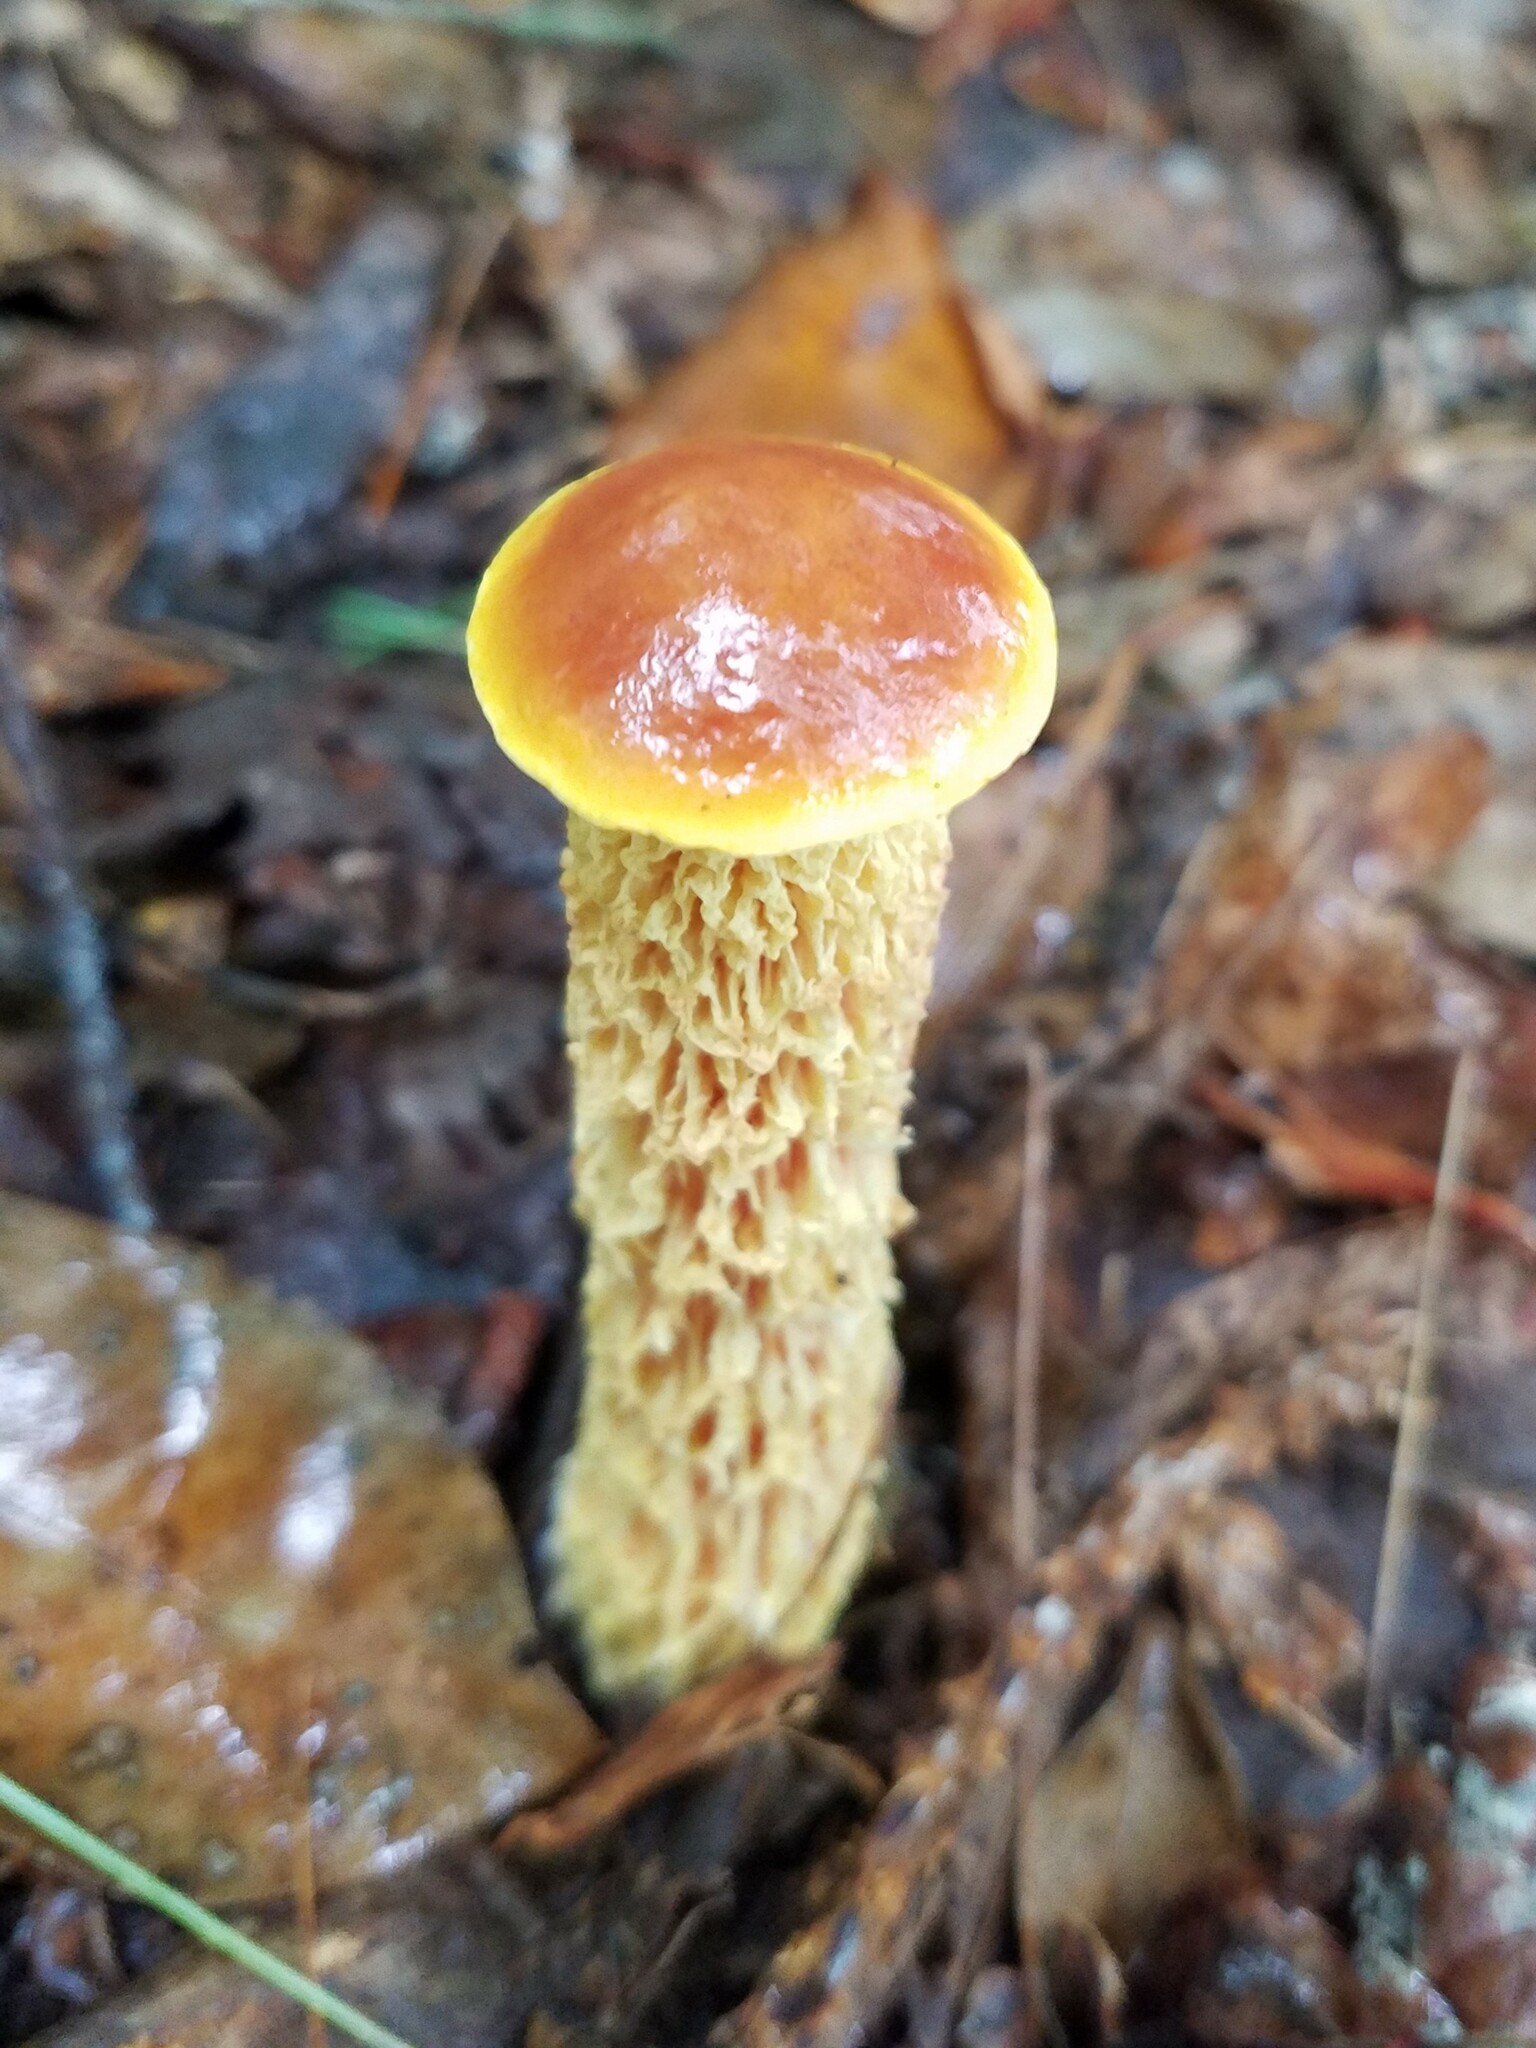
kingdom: Fungi
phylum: Basidiomycota
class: Agaricomycetes
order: Boletales
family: Boletaceae
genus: Aureoboletus
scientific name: Aureoboletus betula
